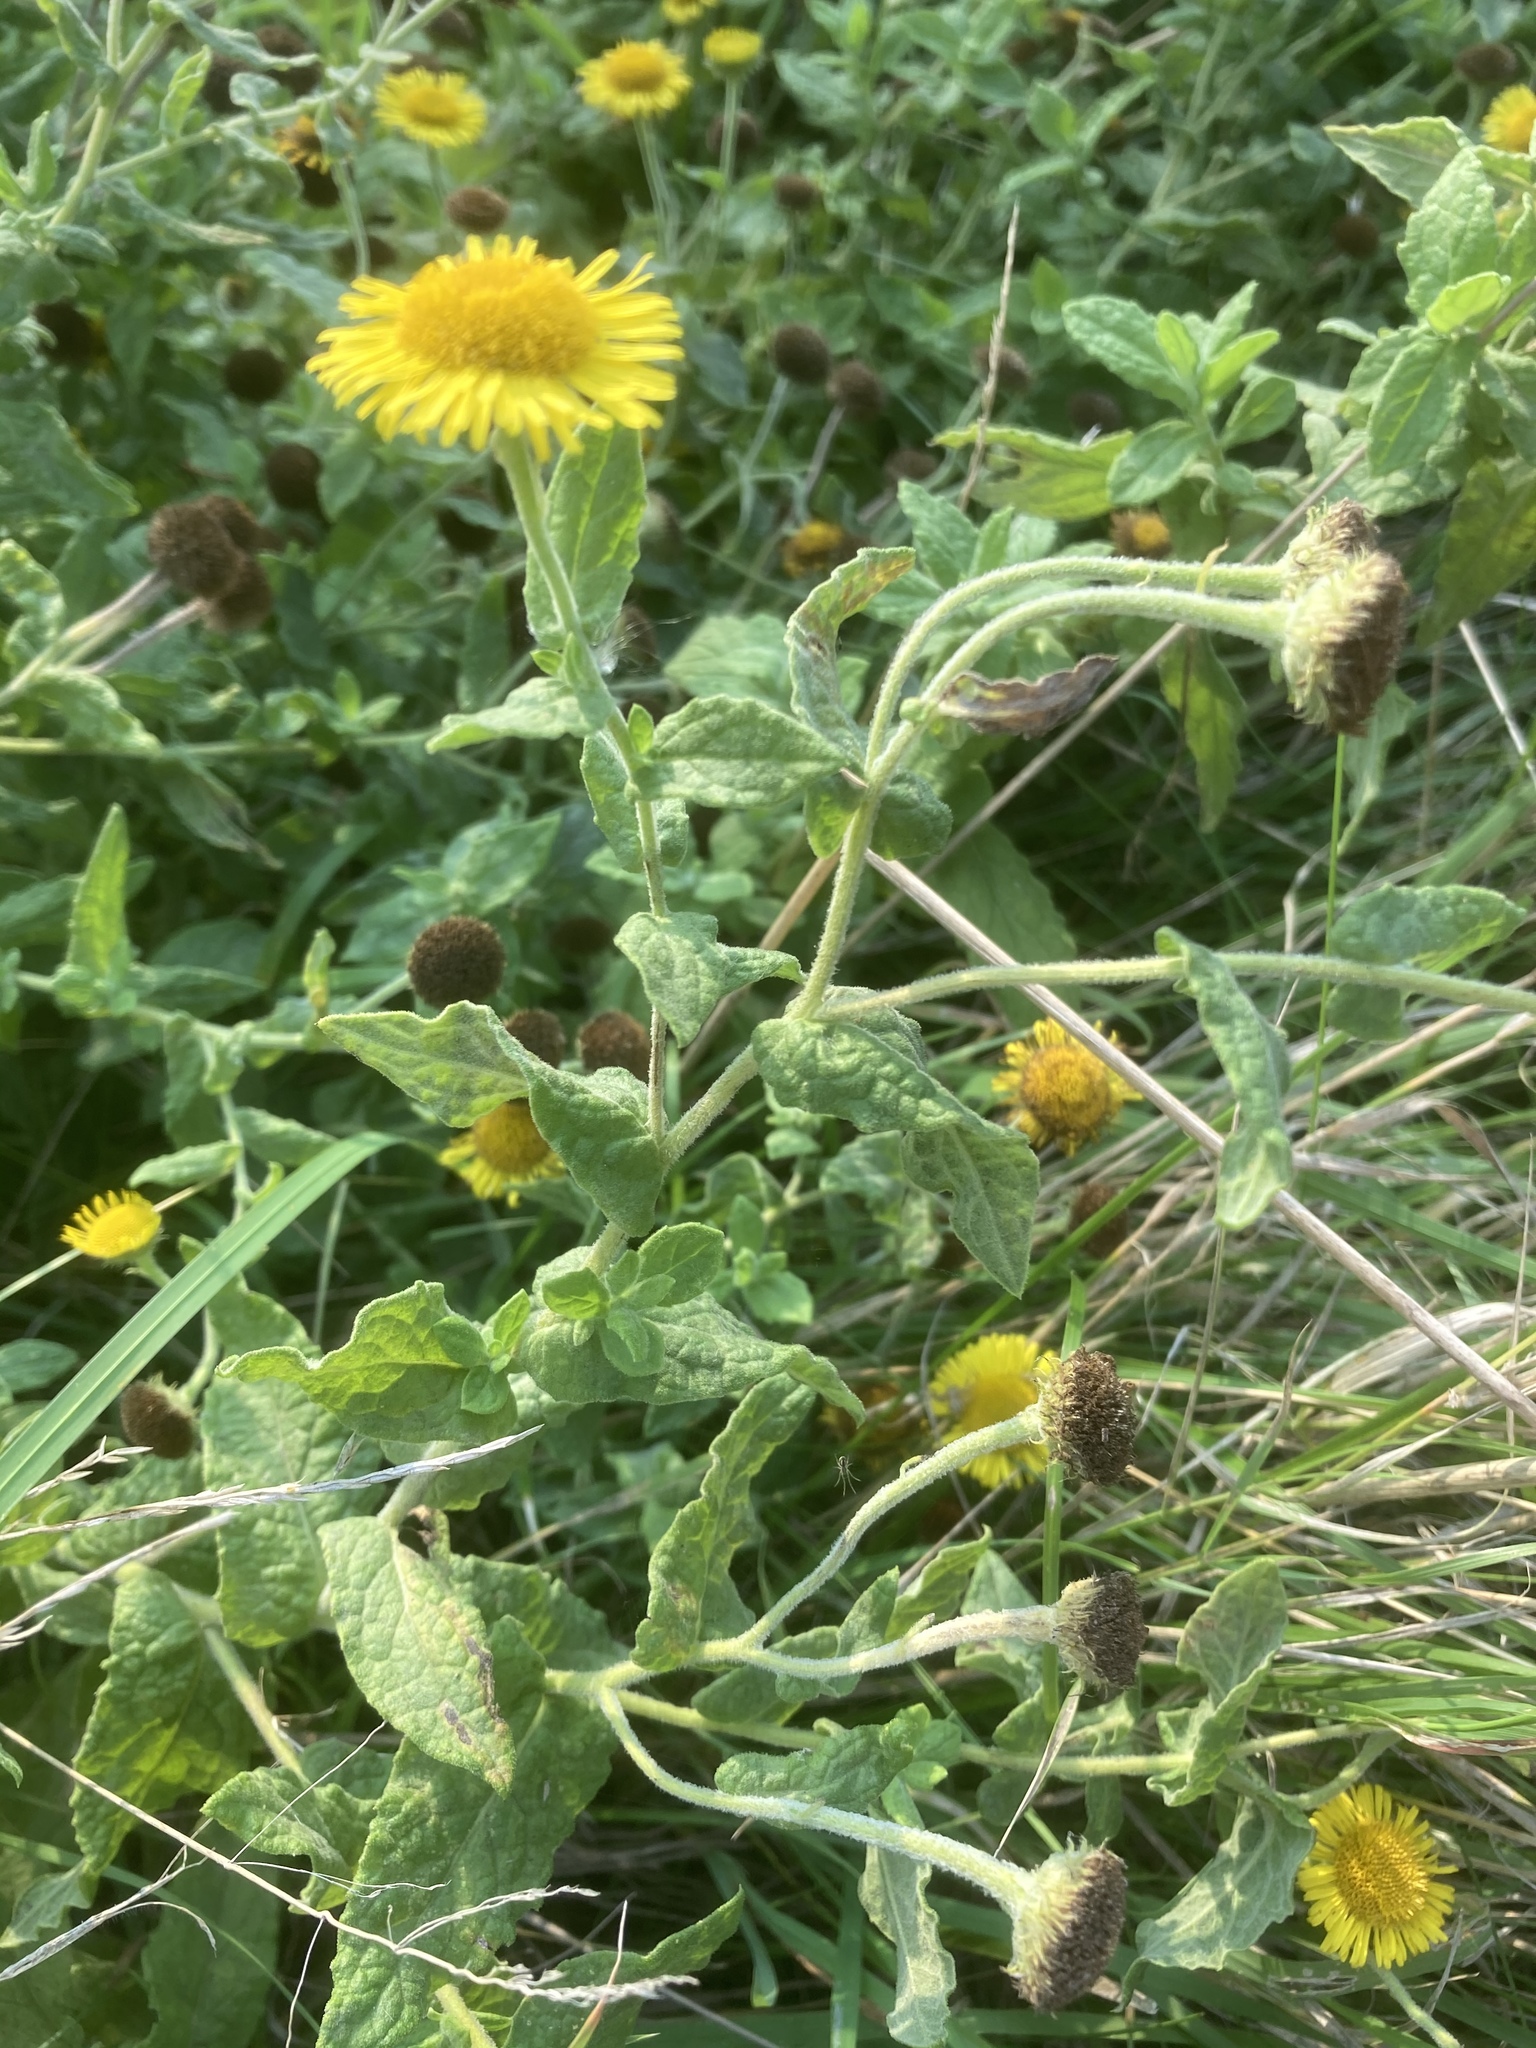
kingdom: Plantae
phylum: Tracheophyta
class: Magnoliopsida
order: Asterales
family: Asteraceae
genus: Pulicaria
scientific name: Pulicaria dysenterica
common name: Common fleabane
